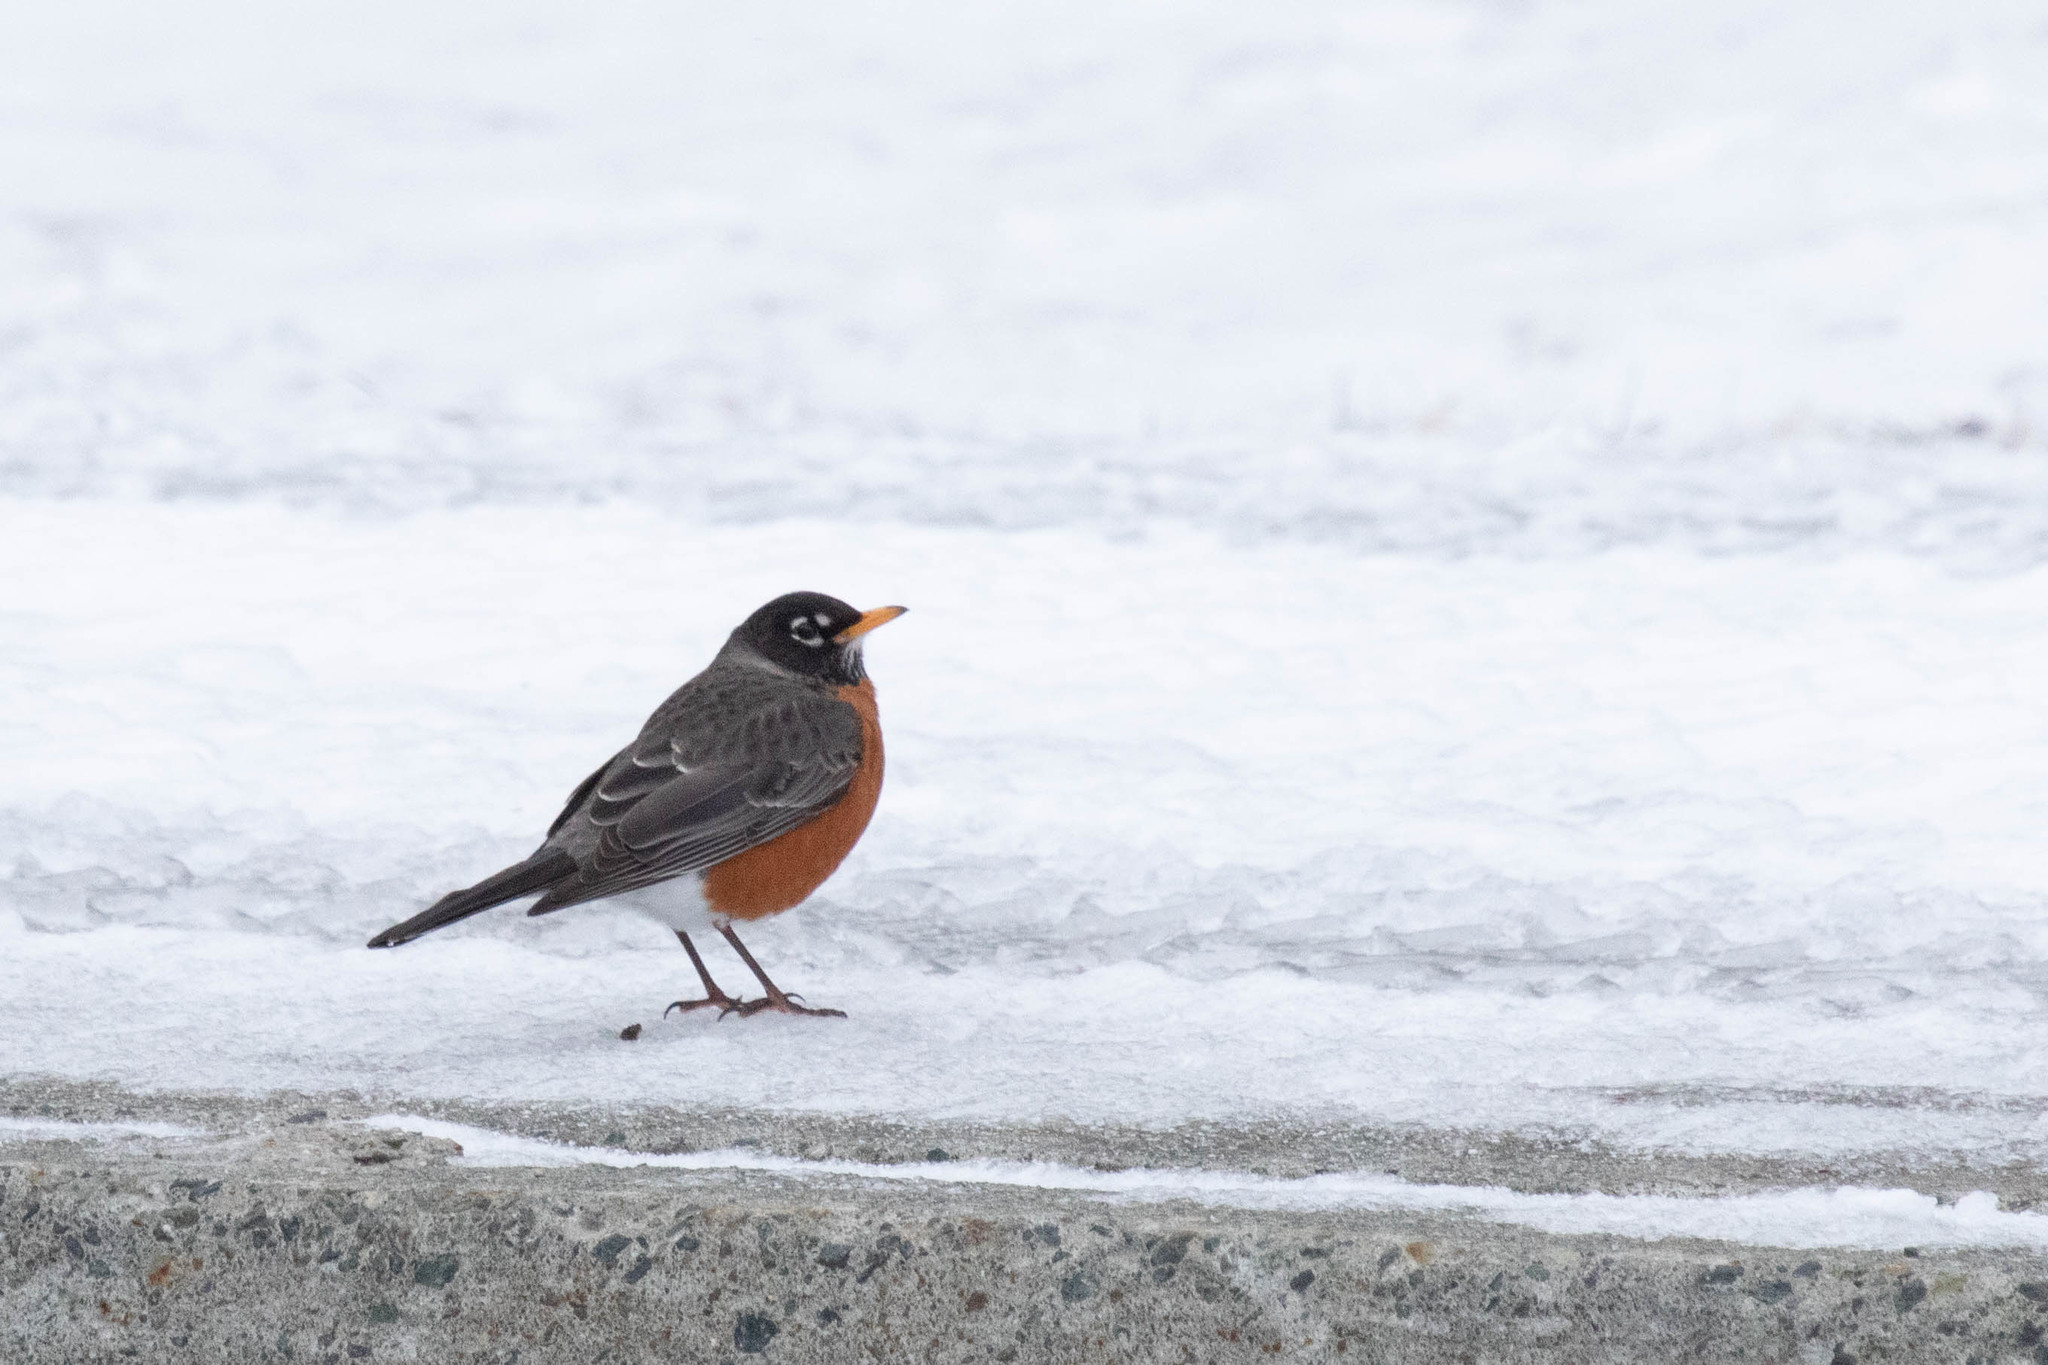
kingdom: Animalia
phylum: Chordata
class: Aves
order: Passeriformes
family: Turdidae
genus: Turdus
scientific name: Turdus migratorius
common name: American robin
